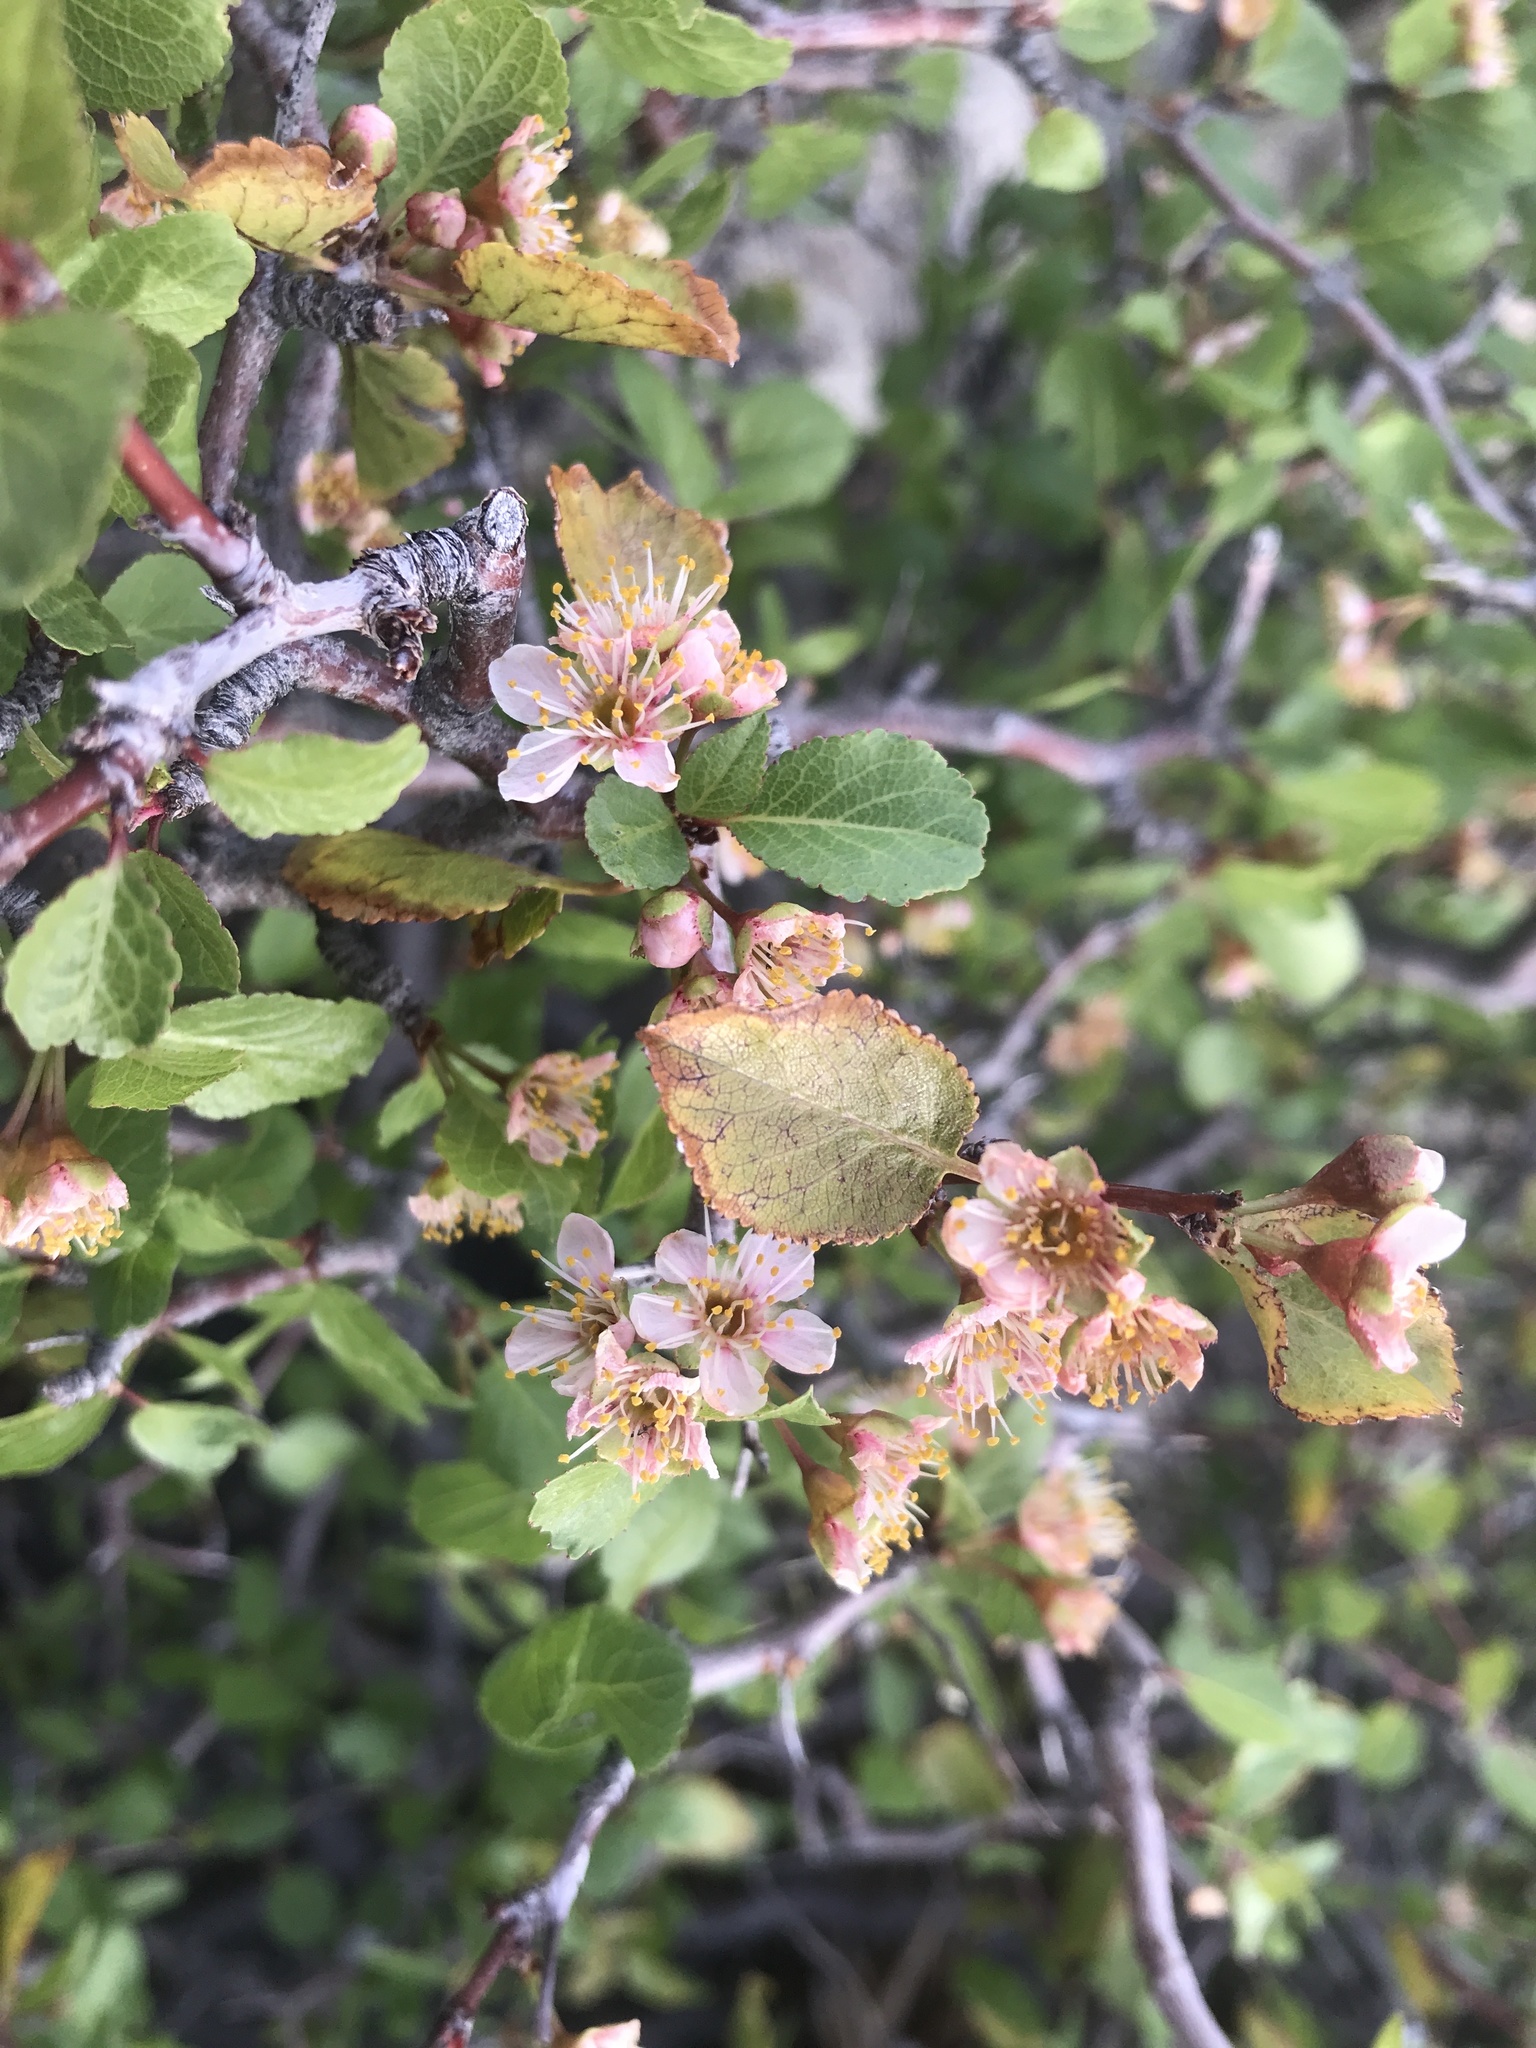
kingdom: Plantae
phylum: Tracheophyta
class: Magnoliopsida
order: Rosales
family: Rosaceae
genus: Prunus
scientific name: Prunus fremontii
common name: Desert apricot
